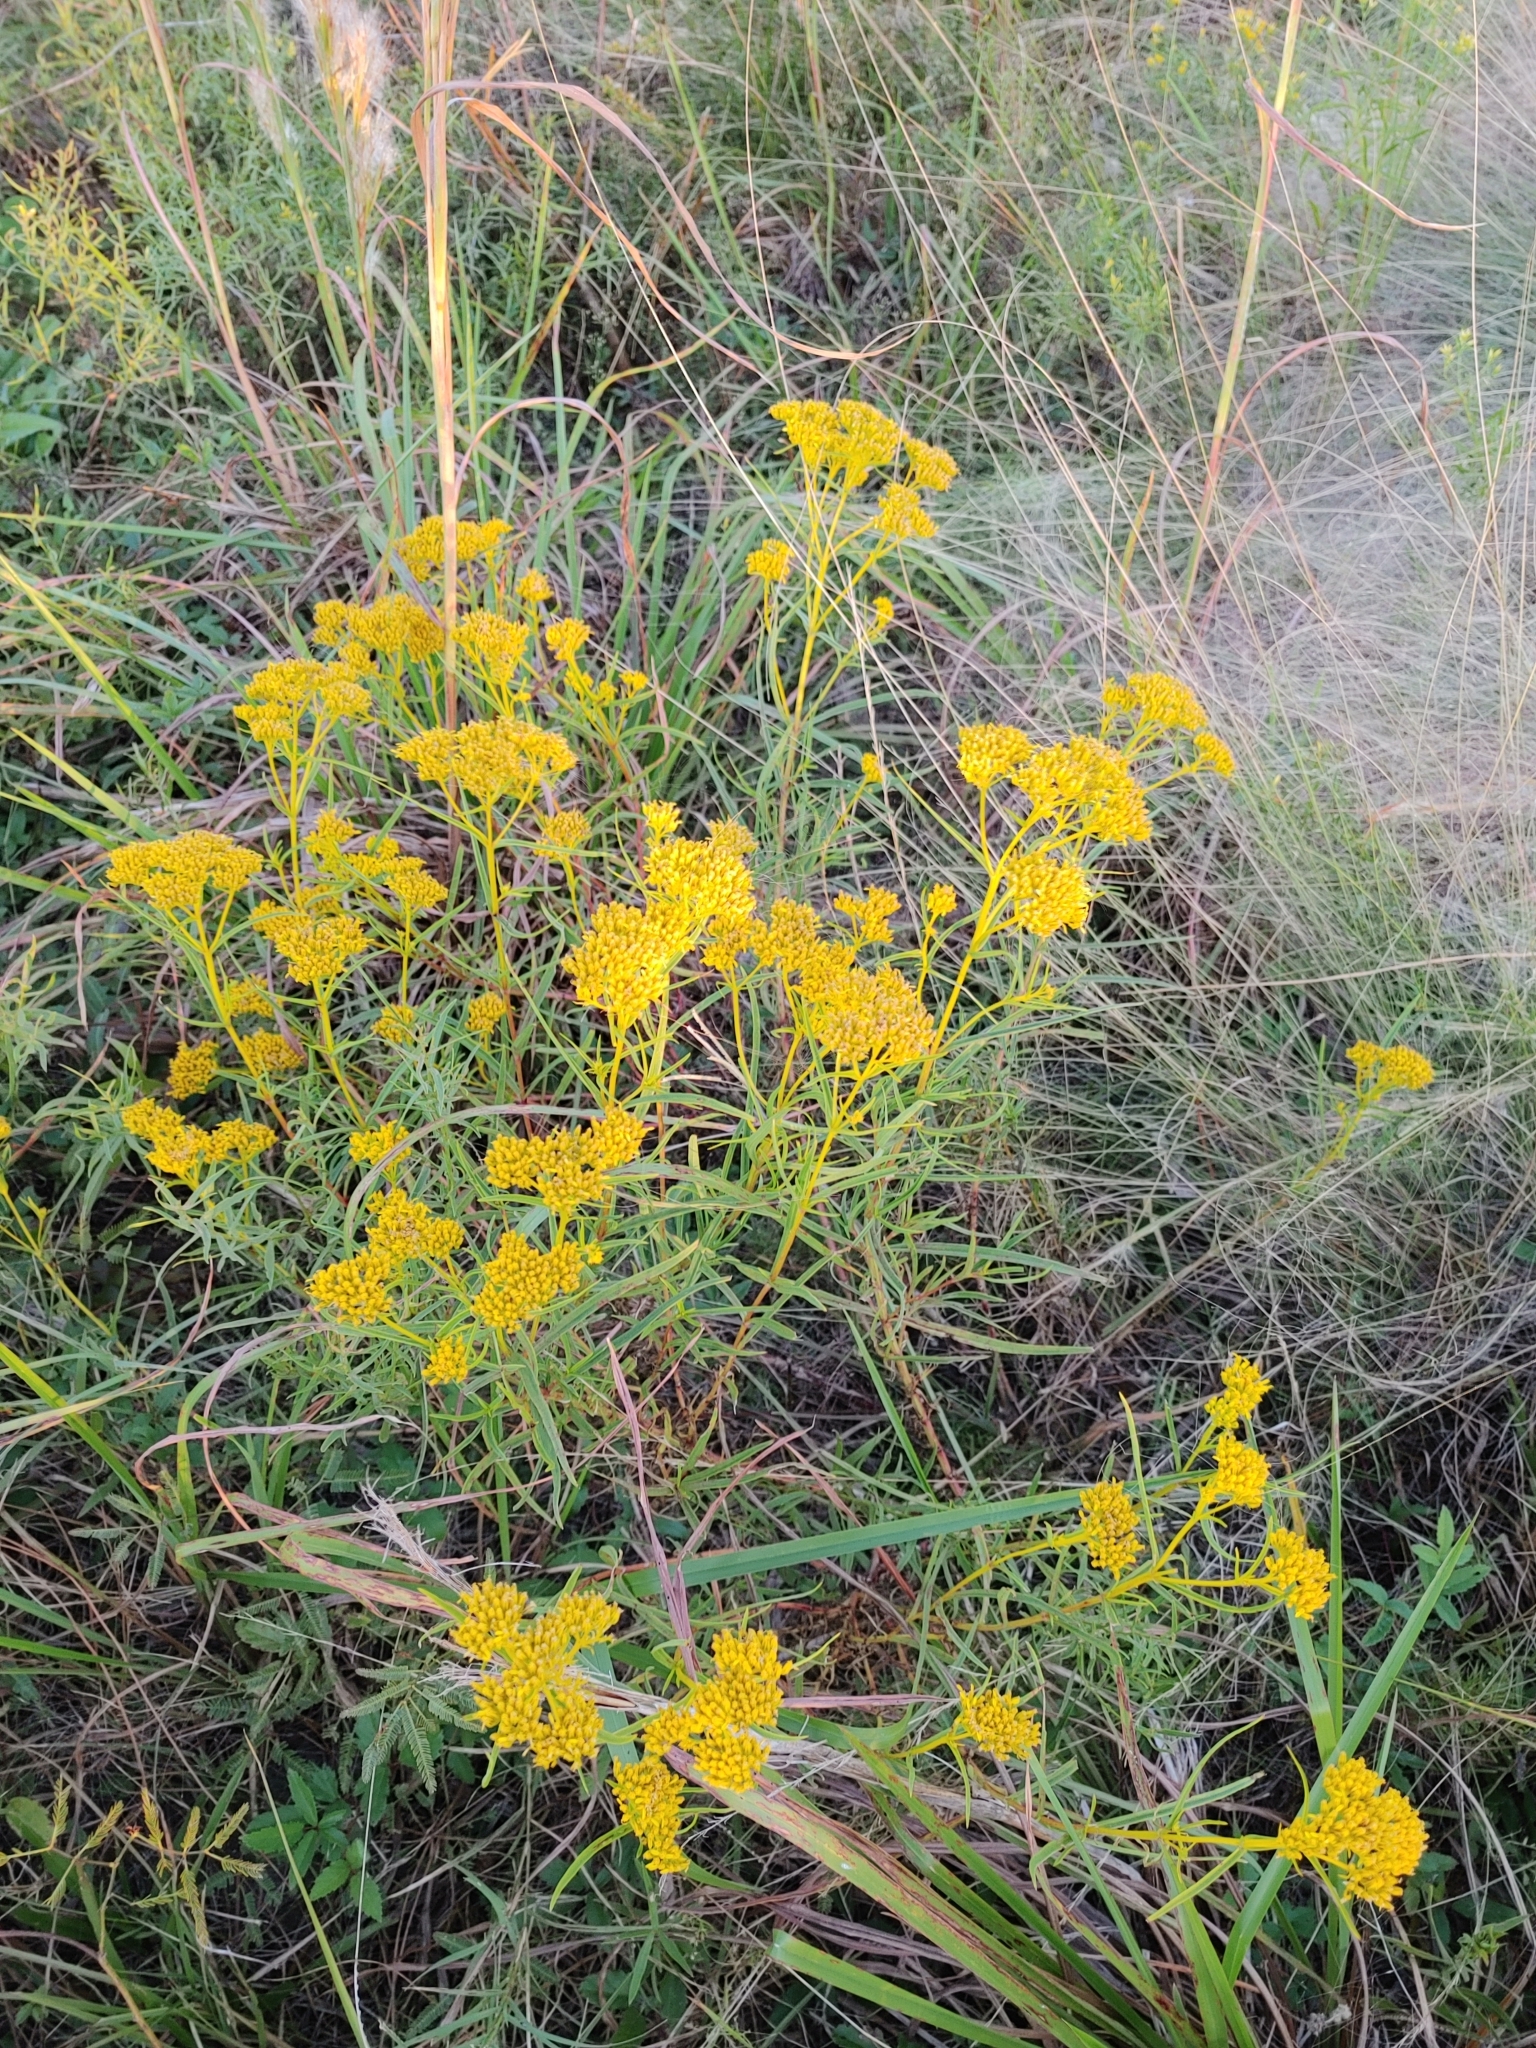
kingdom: Plantae
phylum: Tracheophyta
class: Magnoliopsida
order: Asterales
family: Asteraceae
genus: Flaveria
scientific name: Flaveria linearis
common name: Yellowtop
